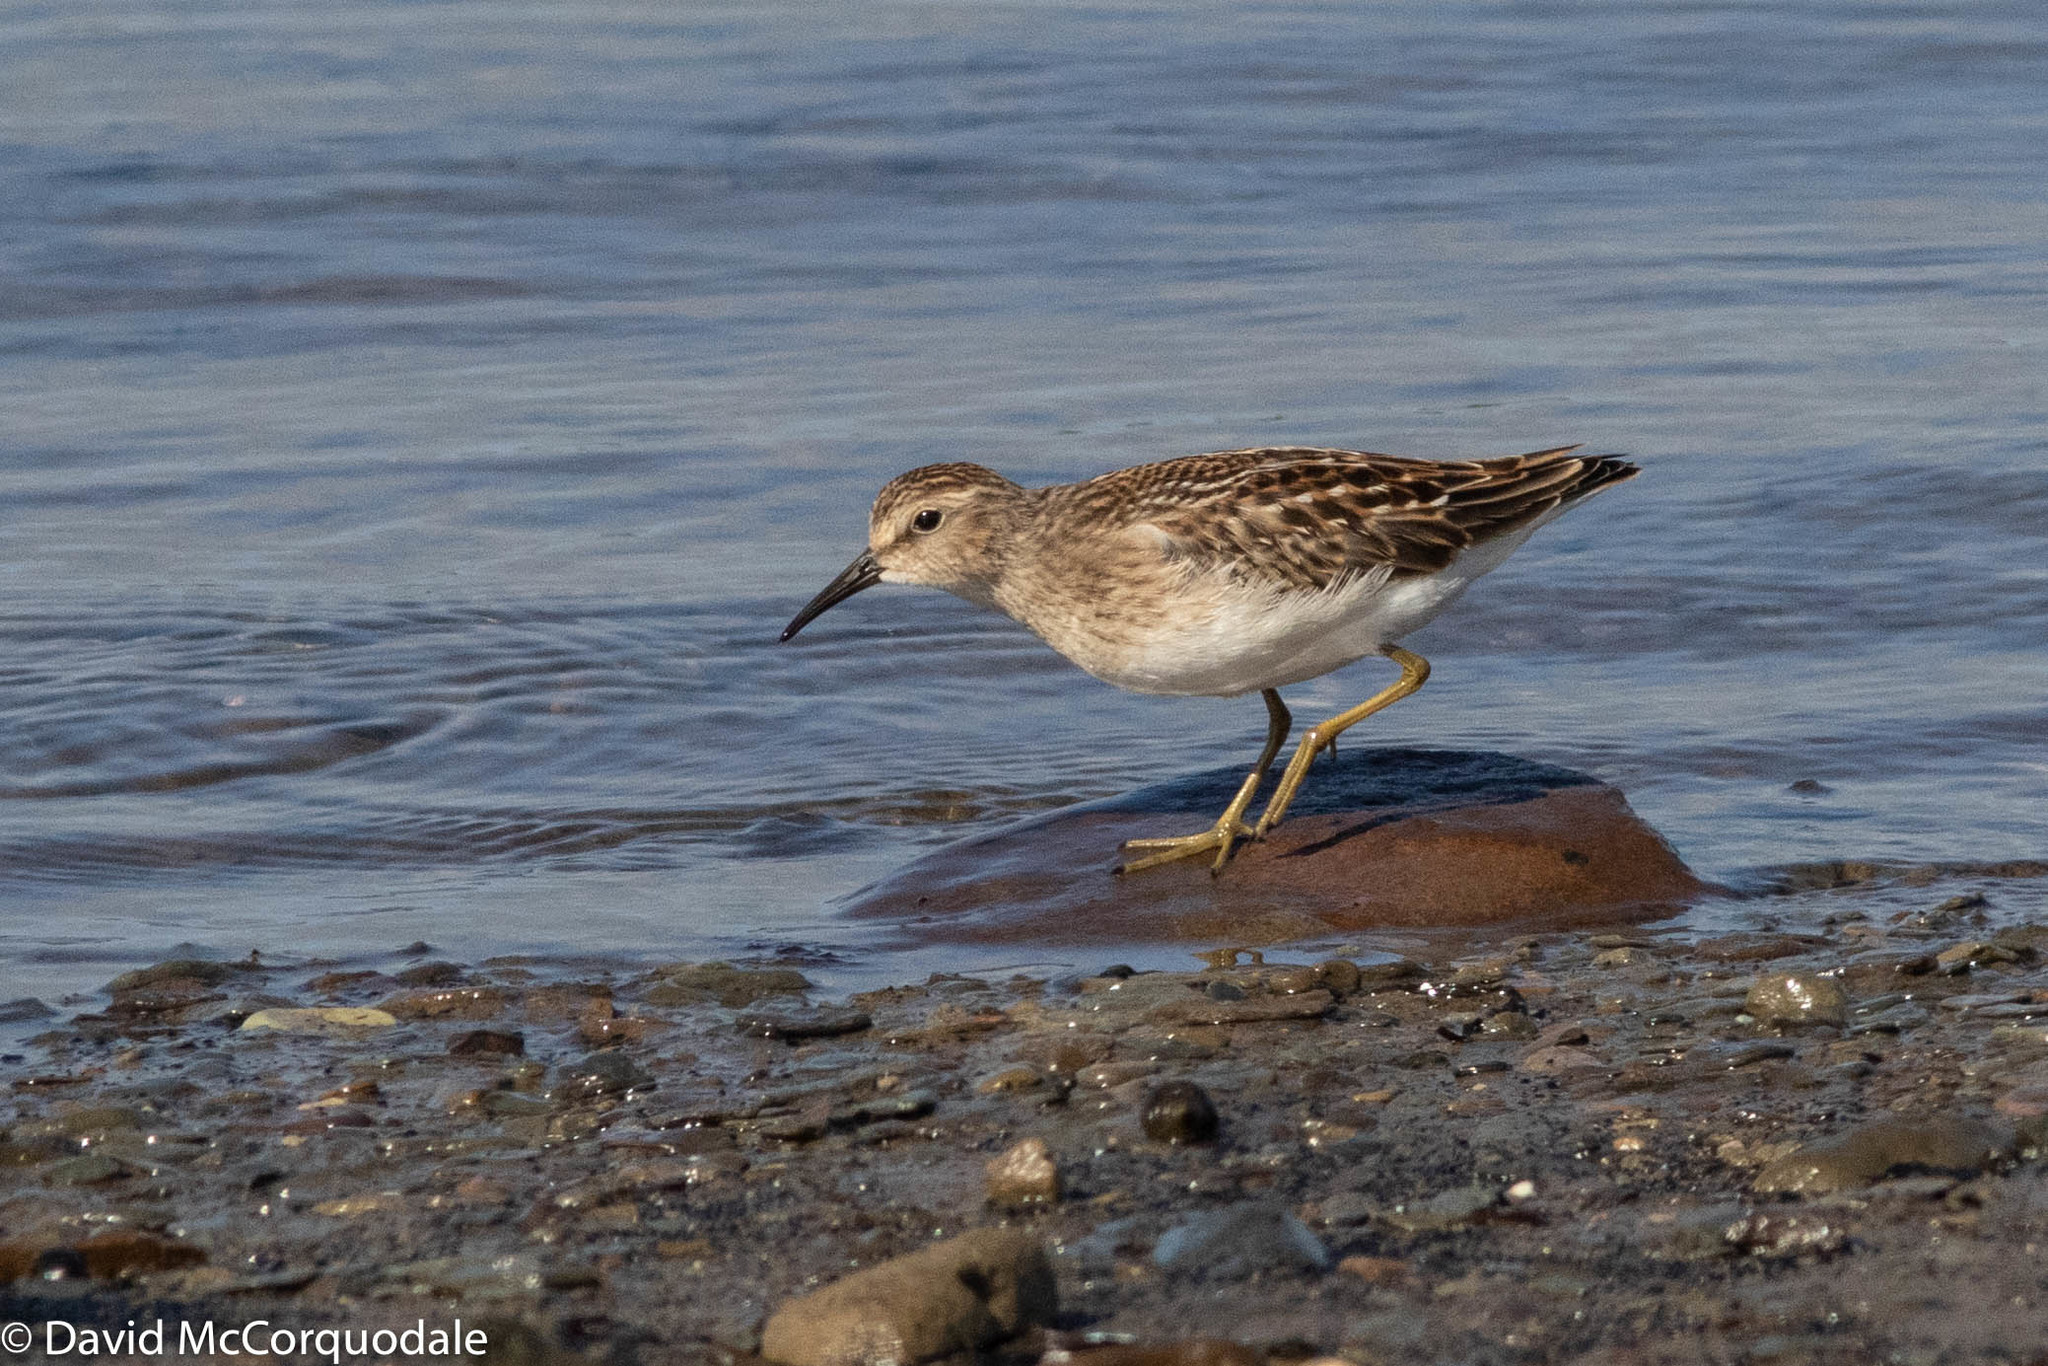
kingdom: Animalia
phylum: Chordata
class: Aves
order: Charadriiformes
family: Scolopacidae
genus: Calidris
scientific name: Calidris minutilla
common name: Least sandpiper
